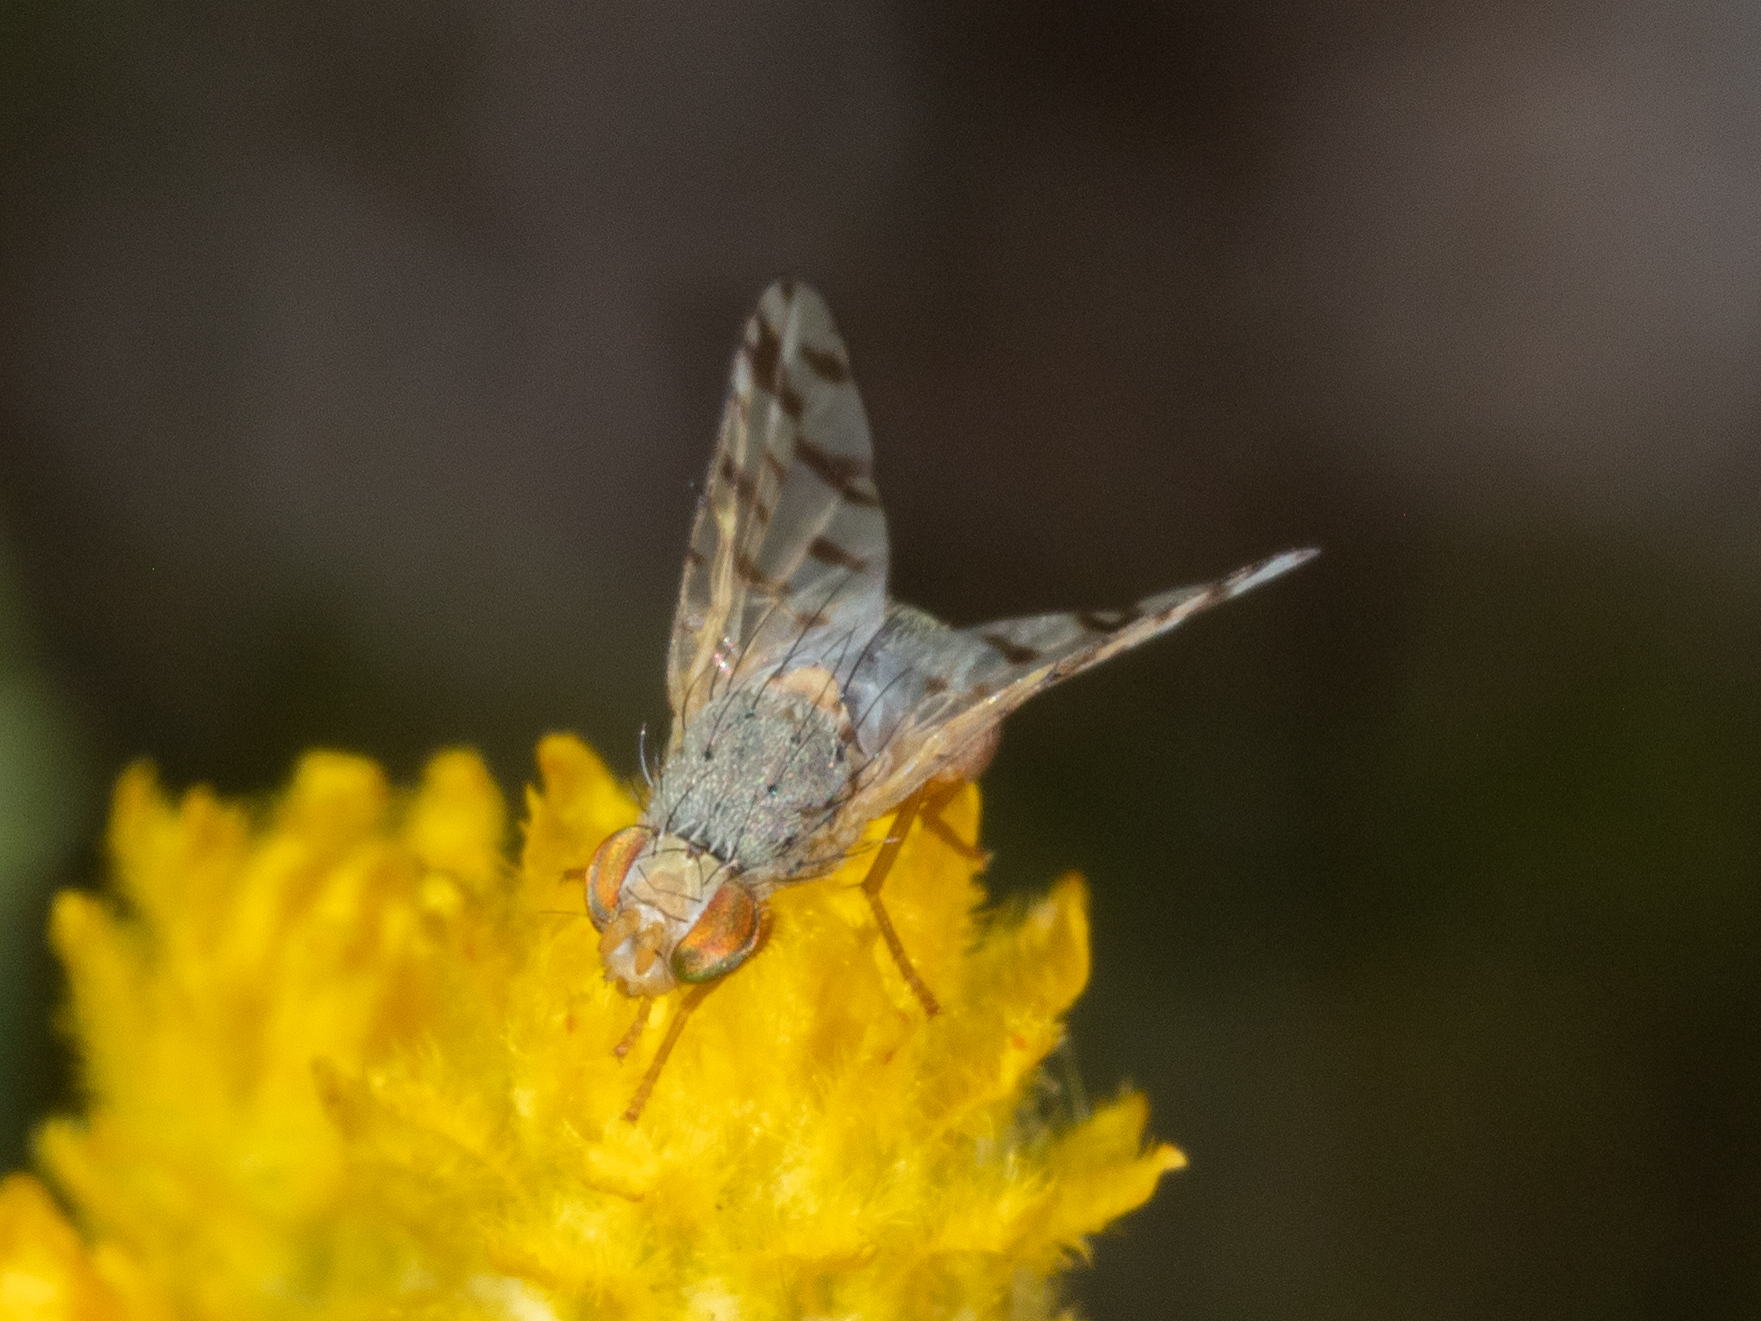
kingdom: Animalia
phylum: Arthropoda
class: Insecta
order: Diptera
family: Tephritidae
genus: Austrotephritis
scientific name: Austrotephritis
